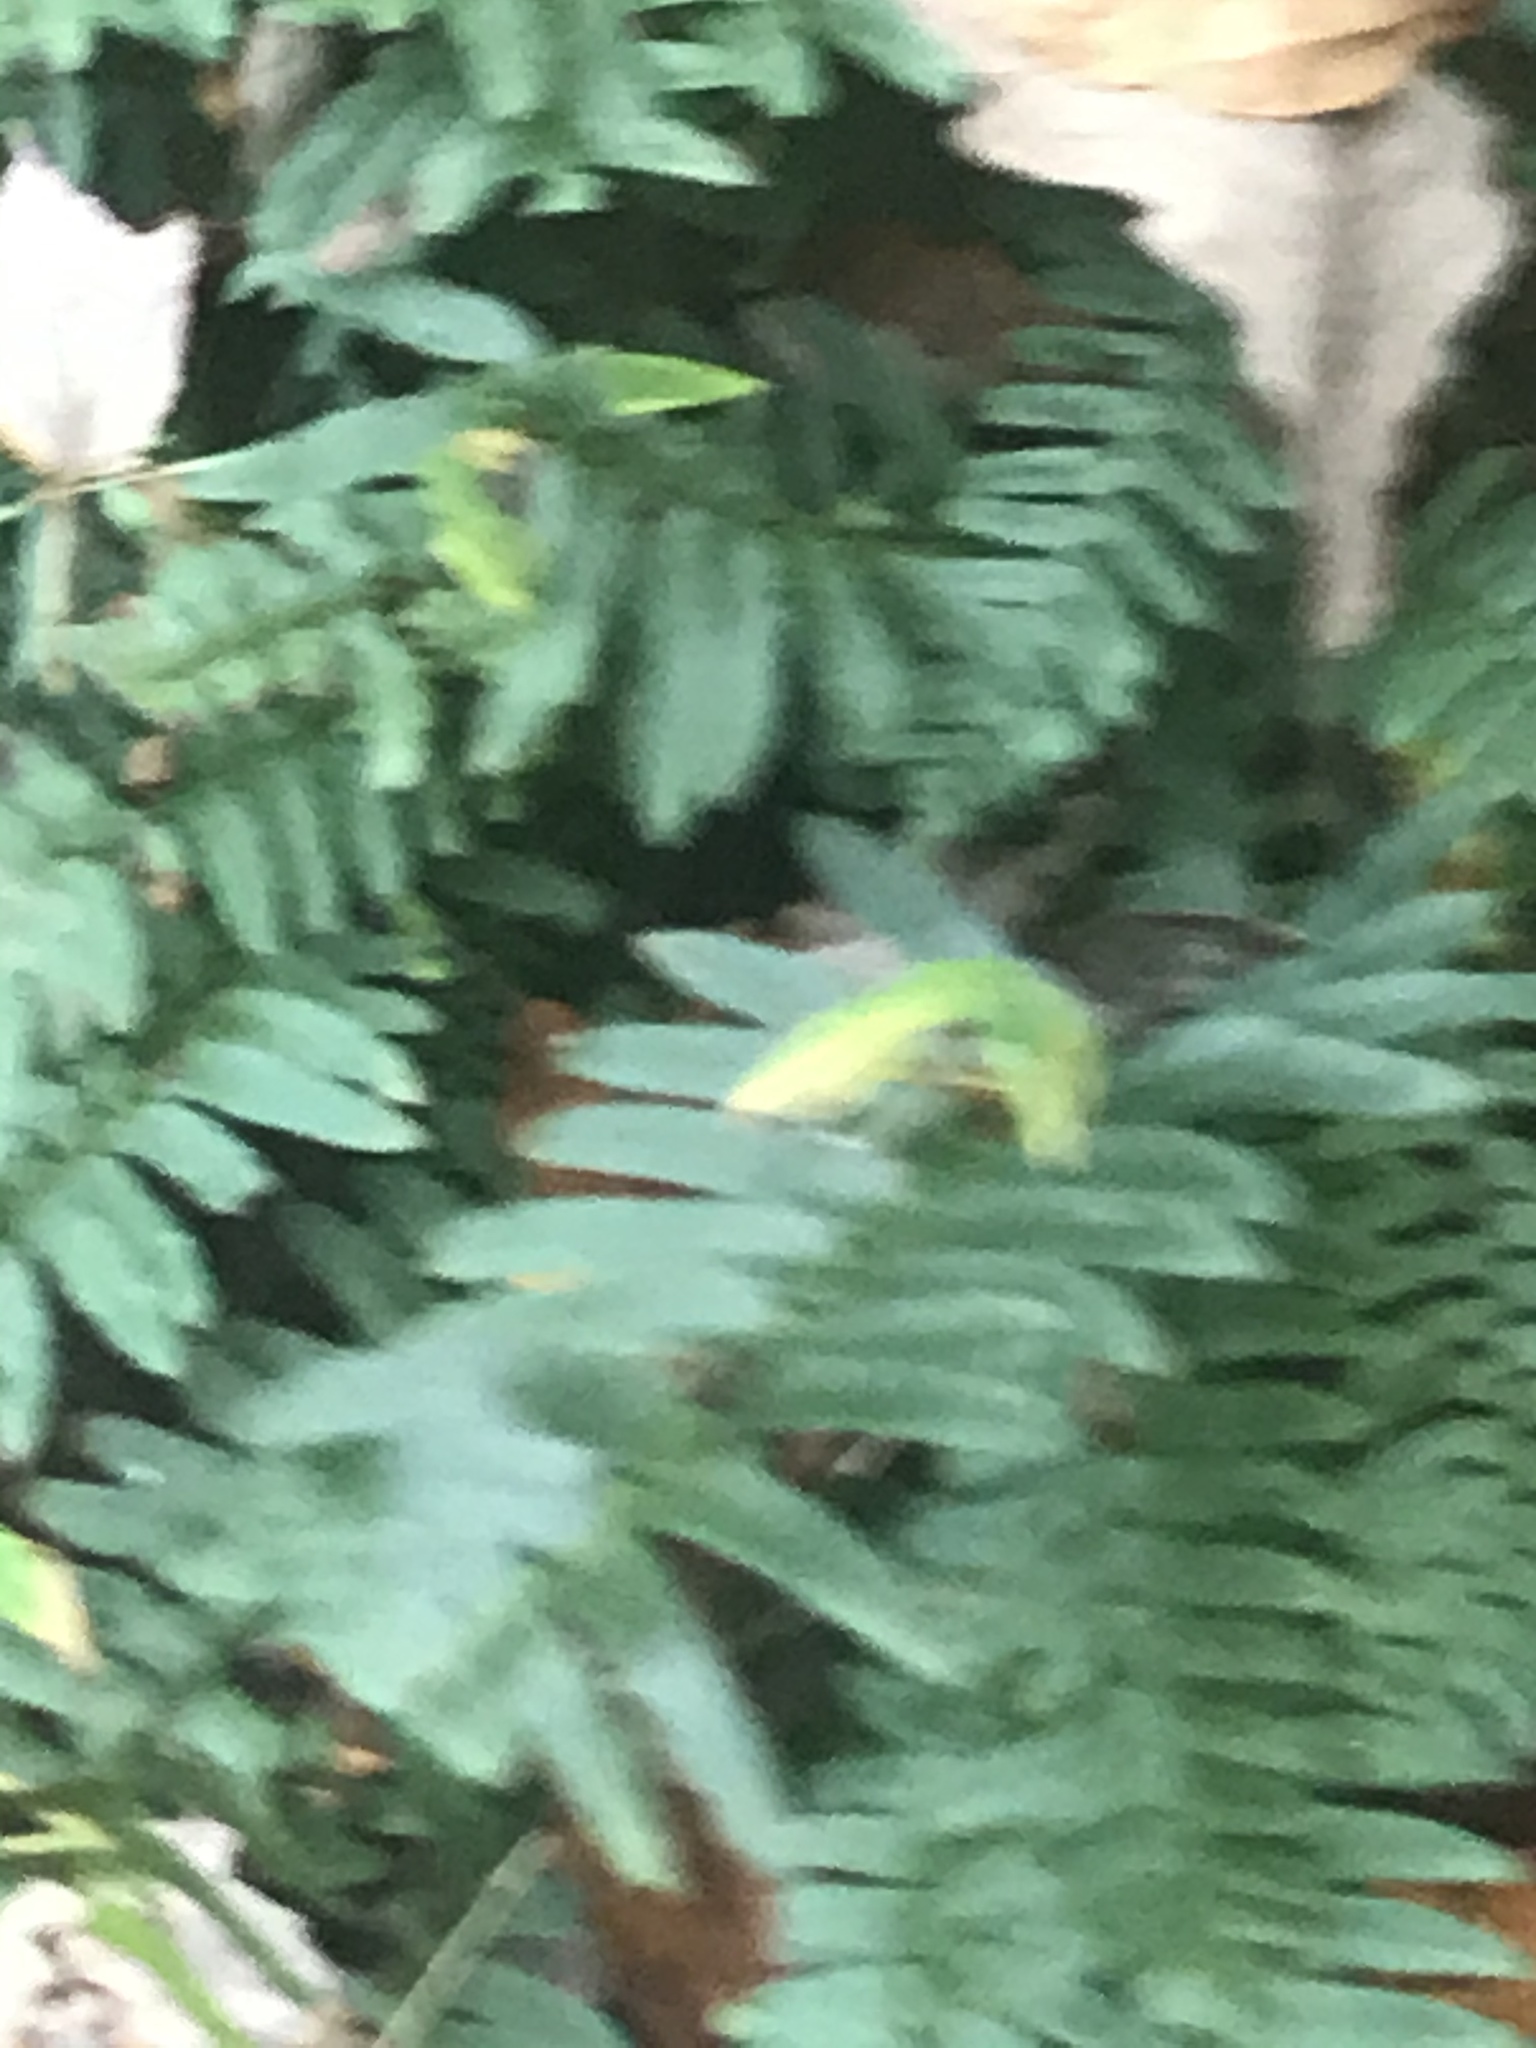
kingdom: Plantae
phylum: Tracheophyta
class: Polypodiopsida
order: Polypodiales
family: Dryopteridaceae
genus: Polystichum
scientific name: Polystichum acrostichoides
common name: Christmas fern
